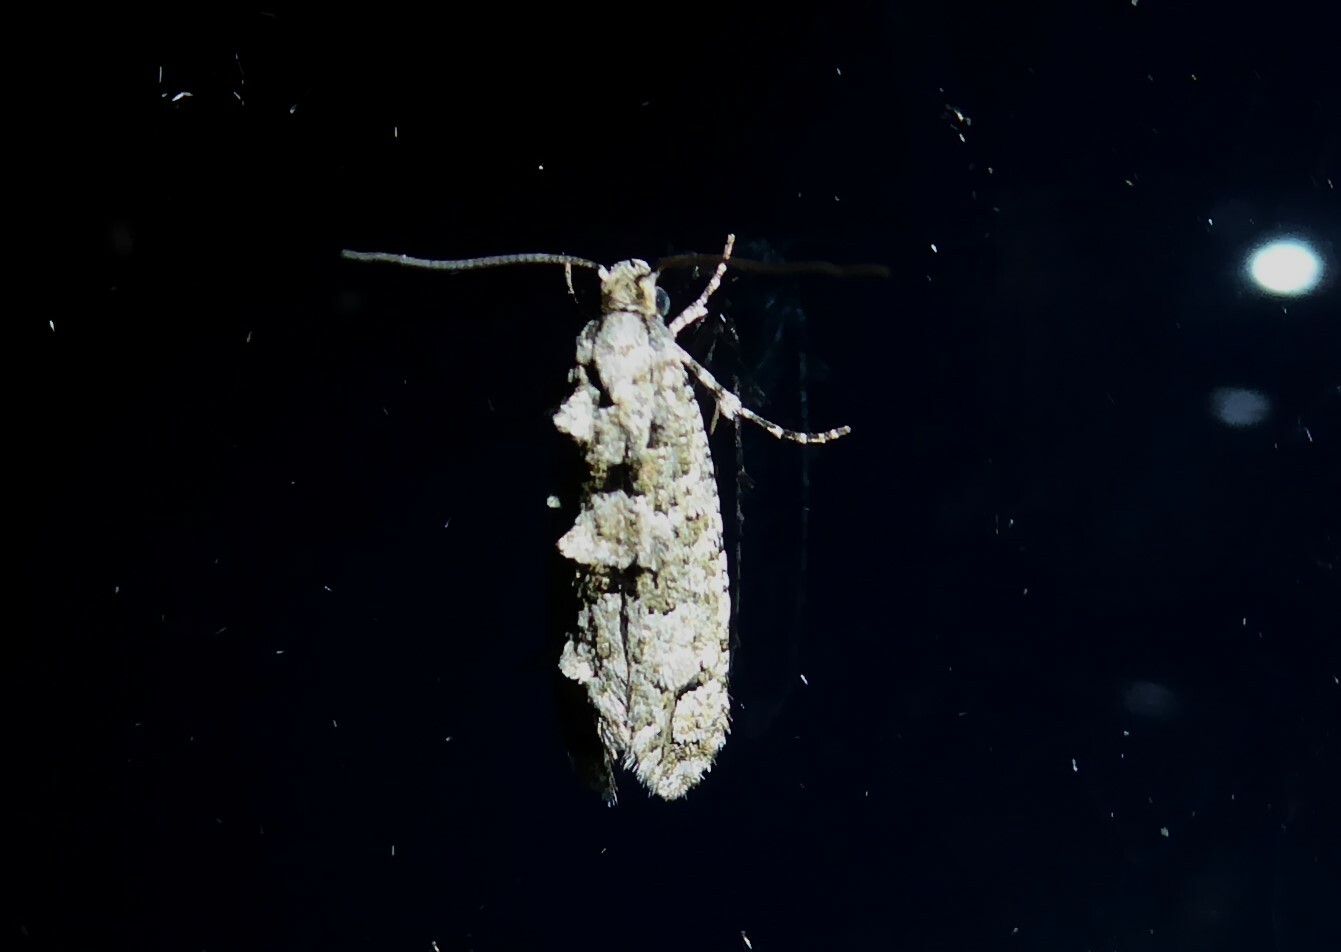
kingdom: Animalia
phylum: Arthropoda
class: Insecta
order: Lepidoptera
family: Tineidae
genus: Lysiphragma
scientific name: Lysiphragma howesii
